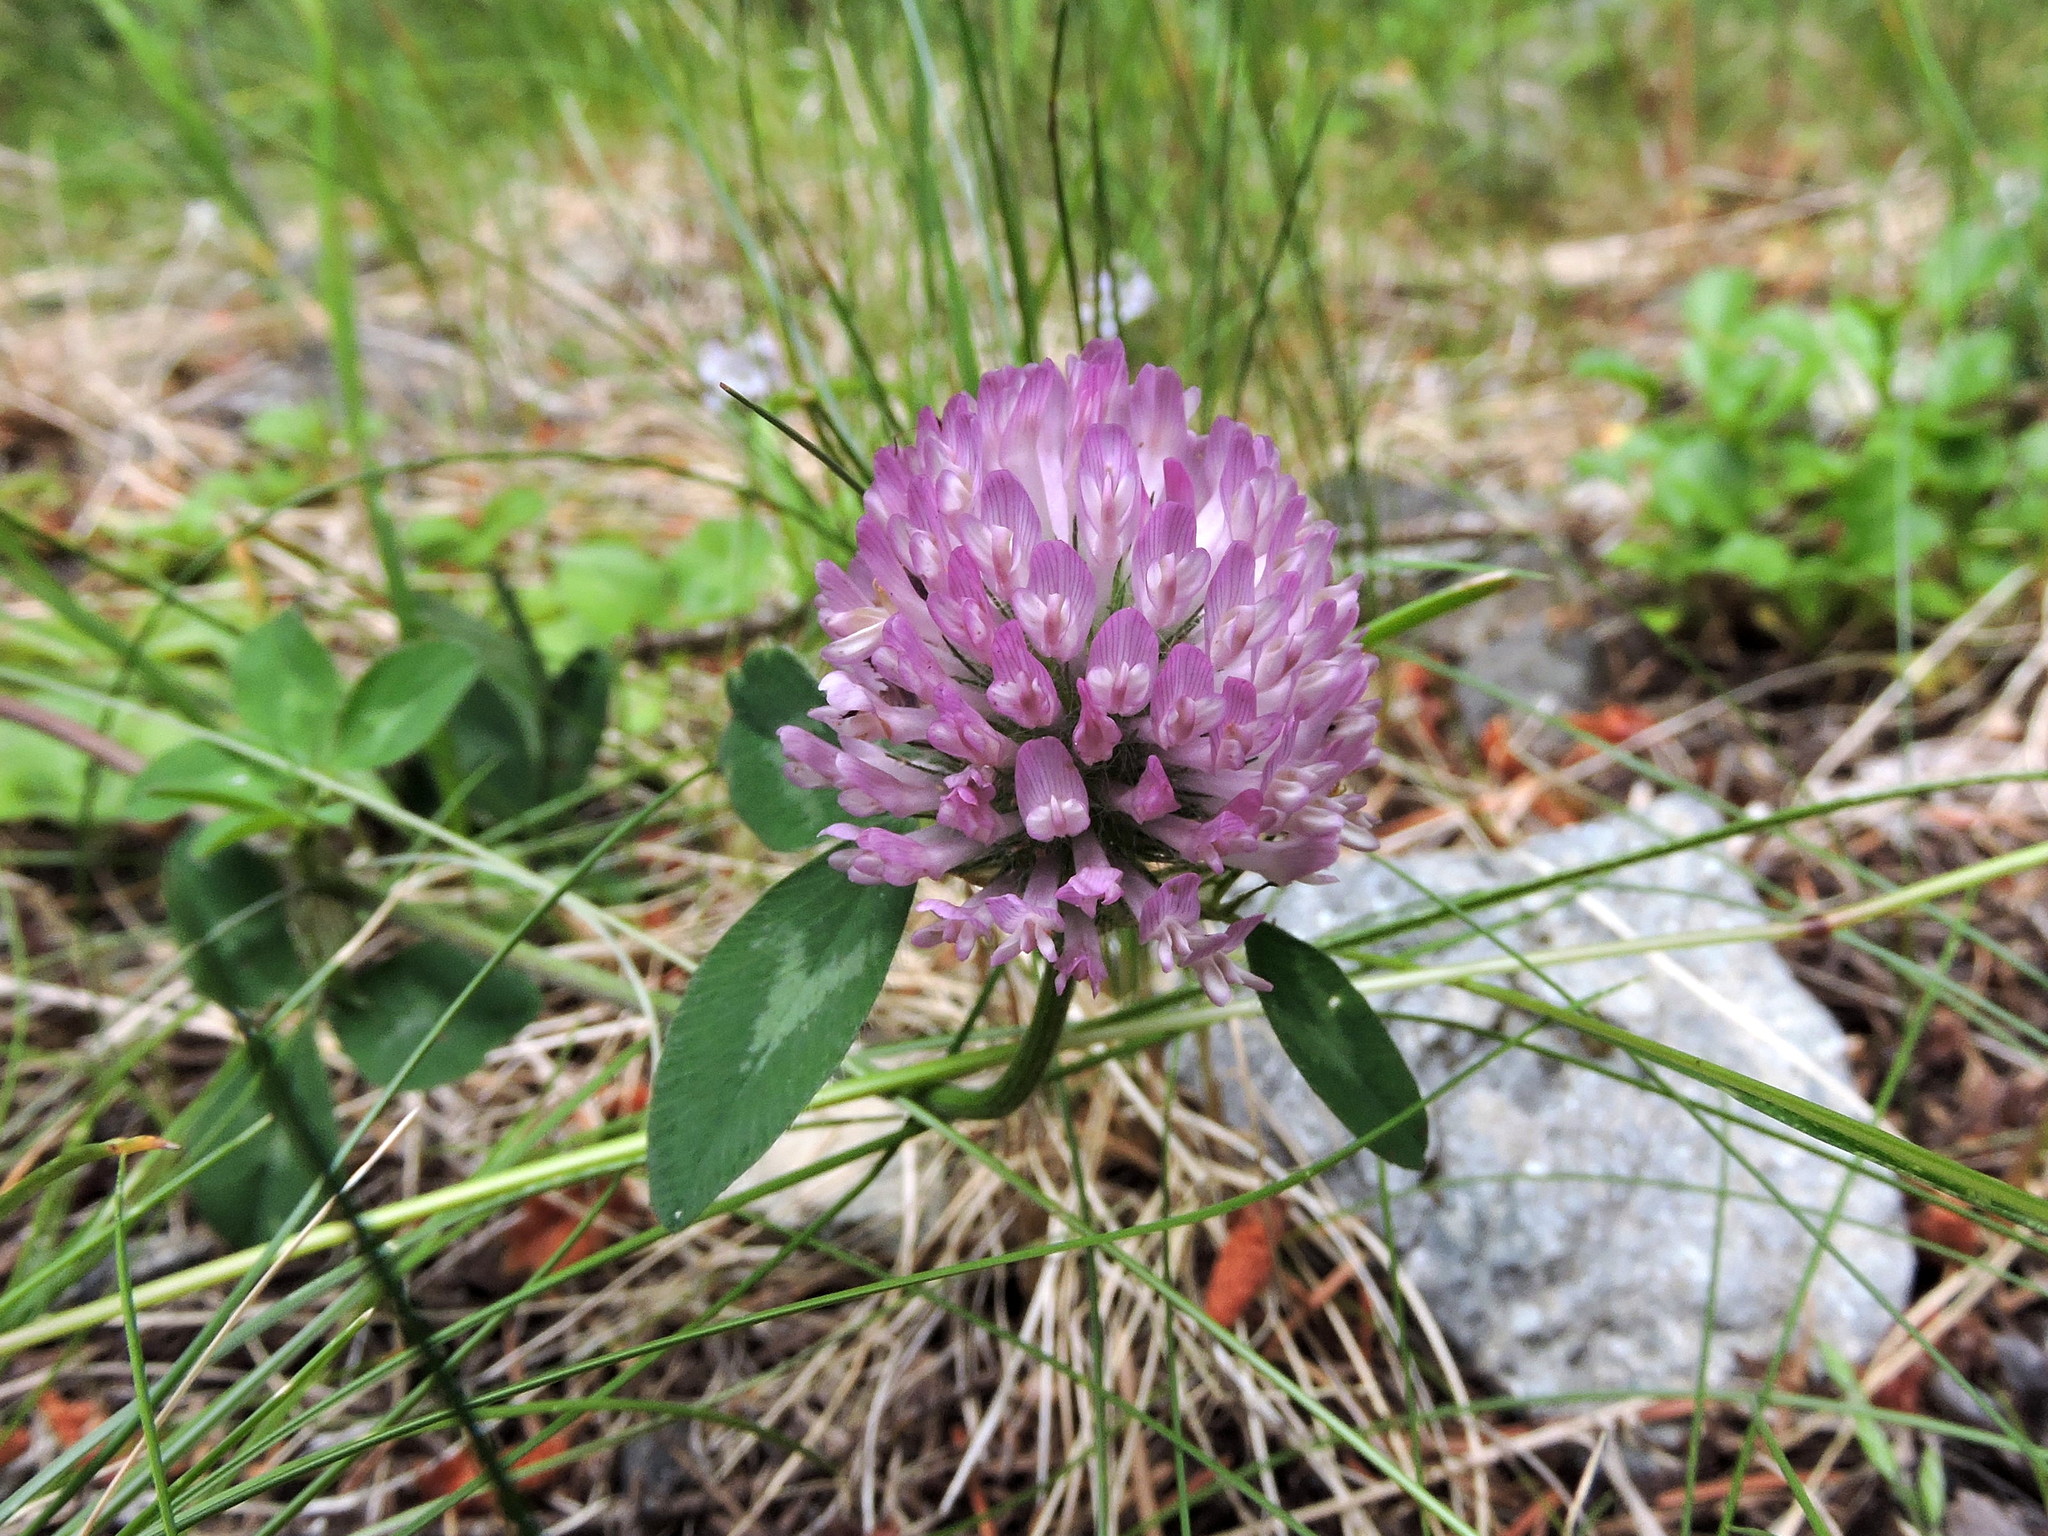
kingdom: Plantae
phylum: Tracheophyta
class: Magnoliopsida
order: Fabales
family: Fabaceae
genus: Trifolium
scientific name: Trifolium pratense
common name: Red clover
